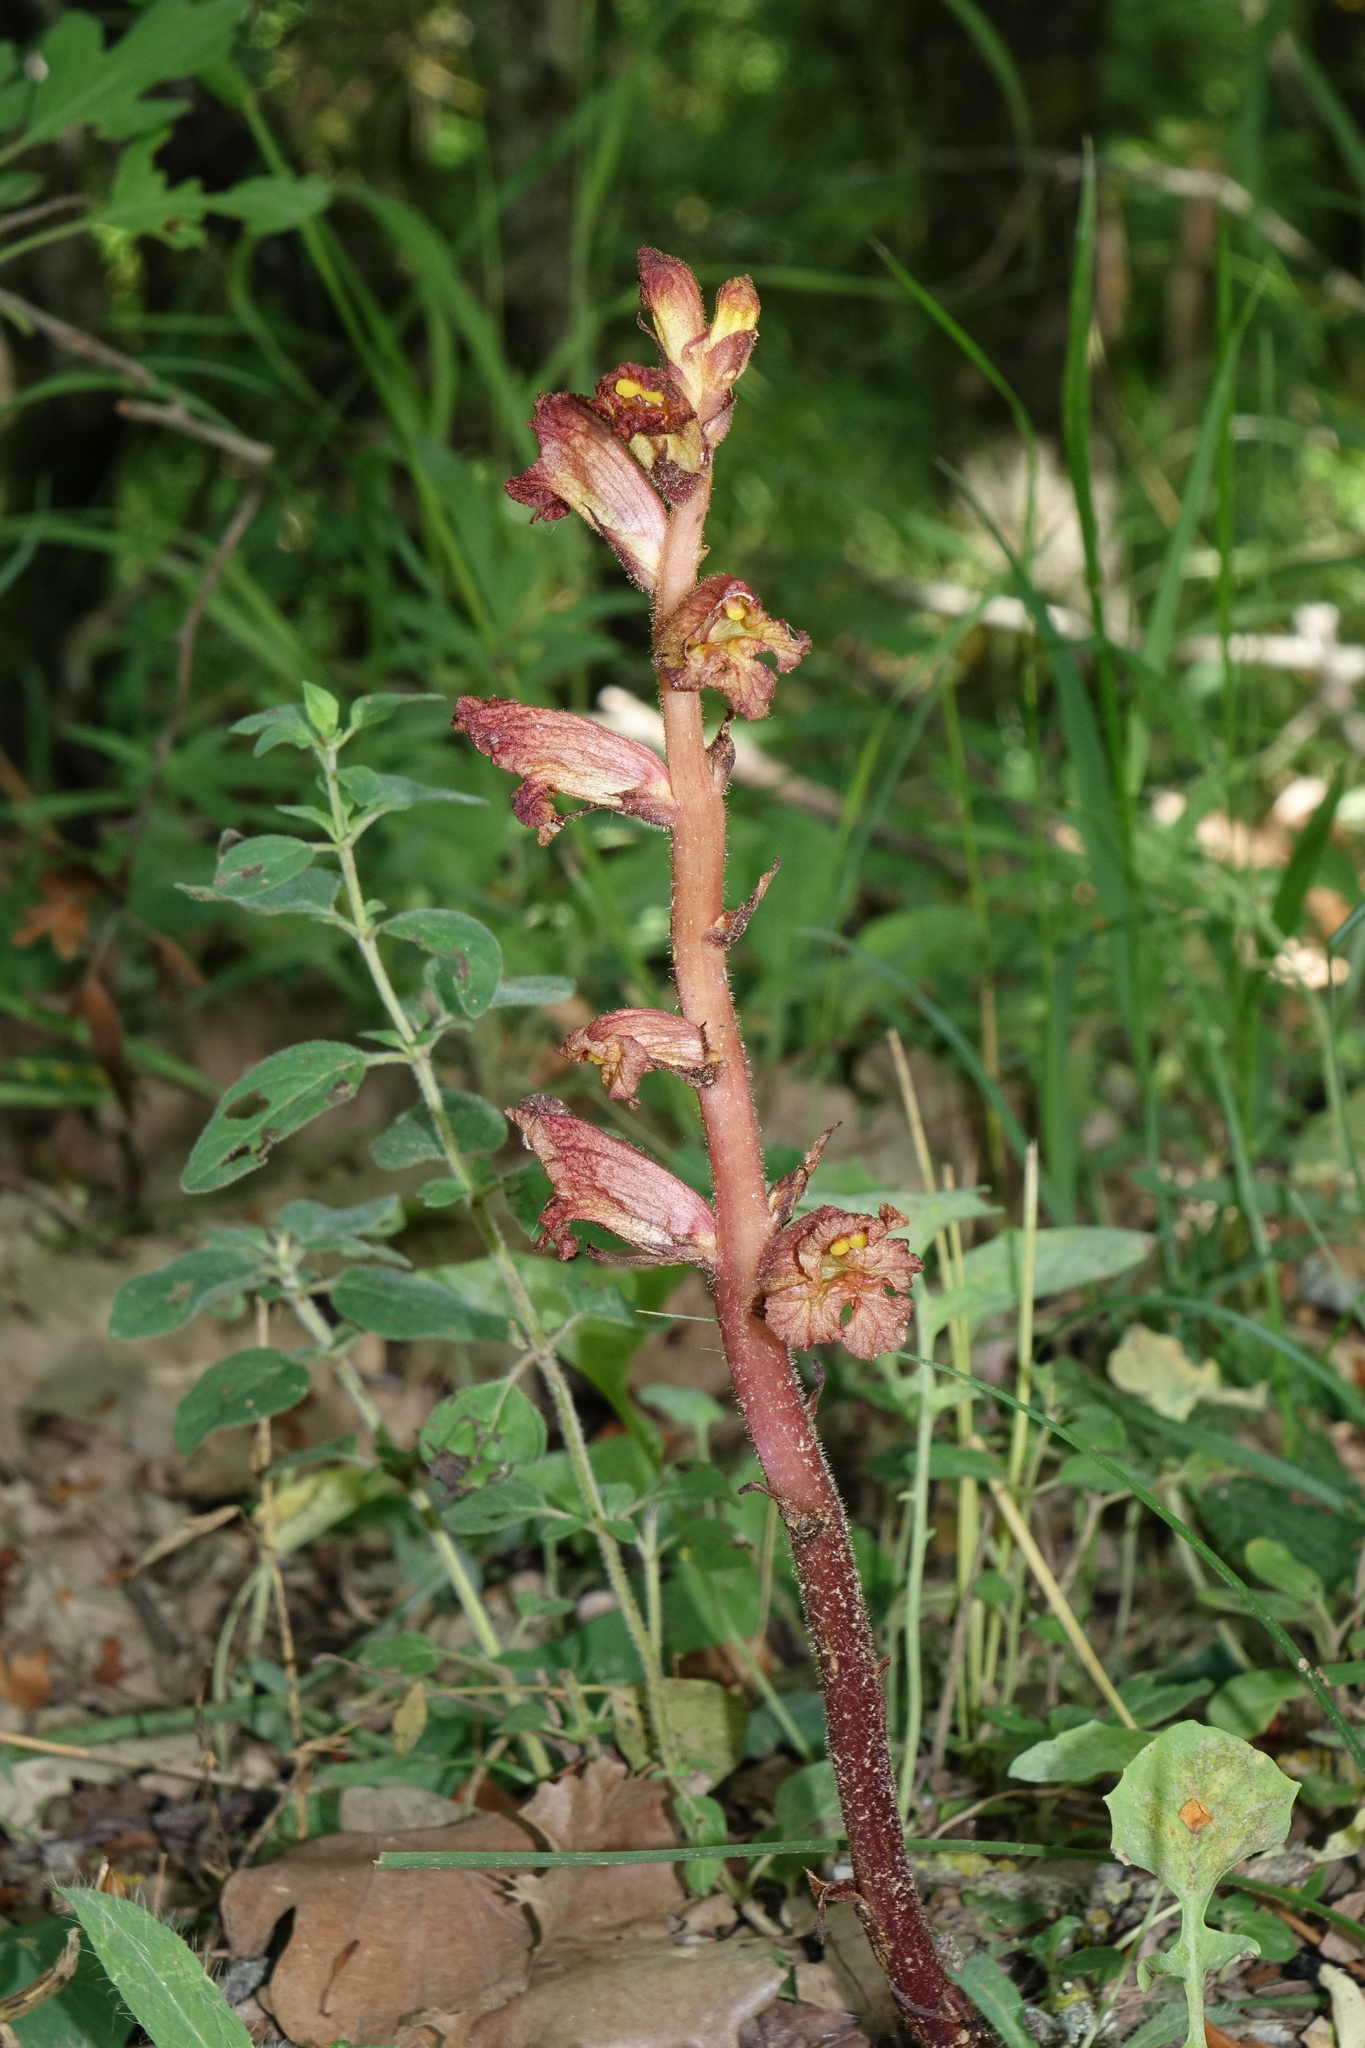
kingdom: Plantae
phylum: Tracheophyta
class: Magnoliopsida
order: Lamiales
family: Orobanchaceae
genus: Orobanche
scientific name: Orobanche alba
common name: Thyme broomrape
